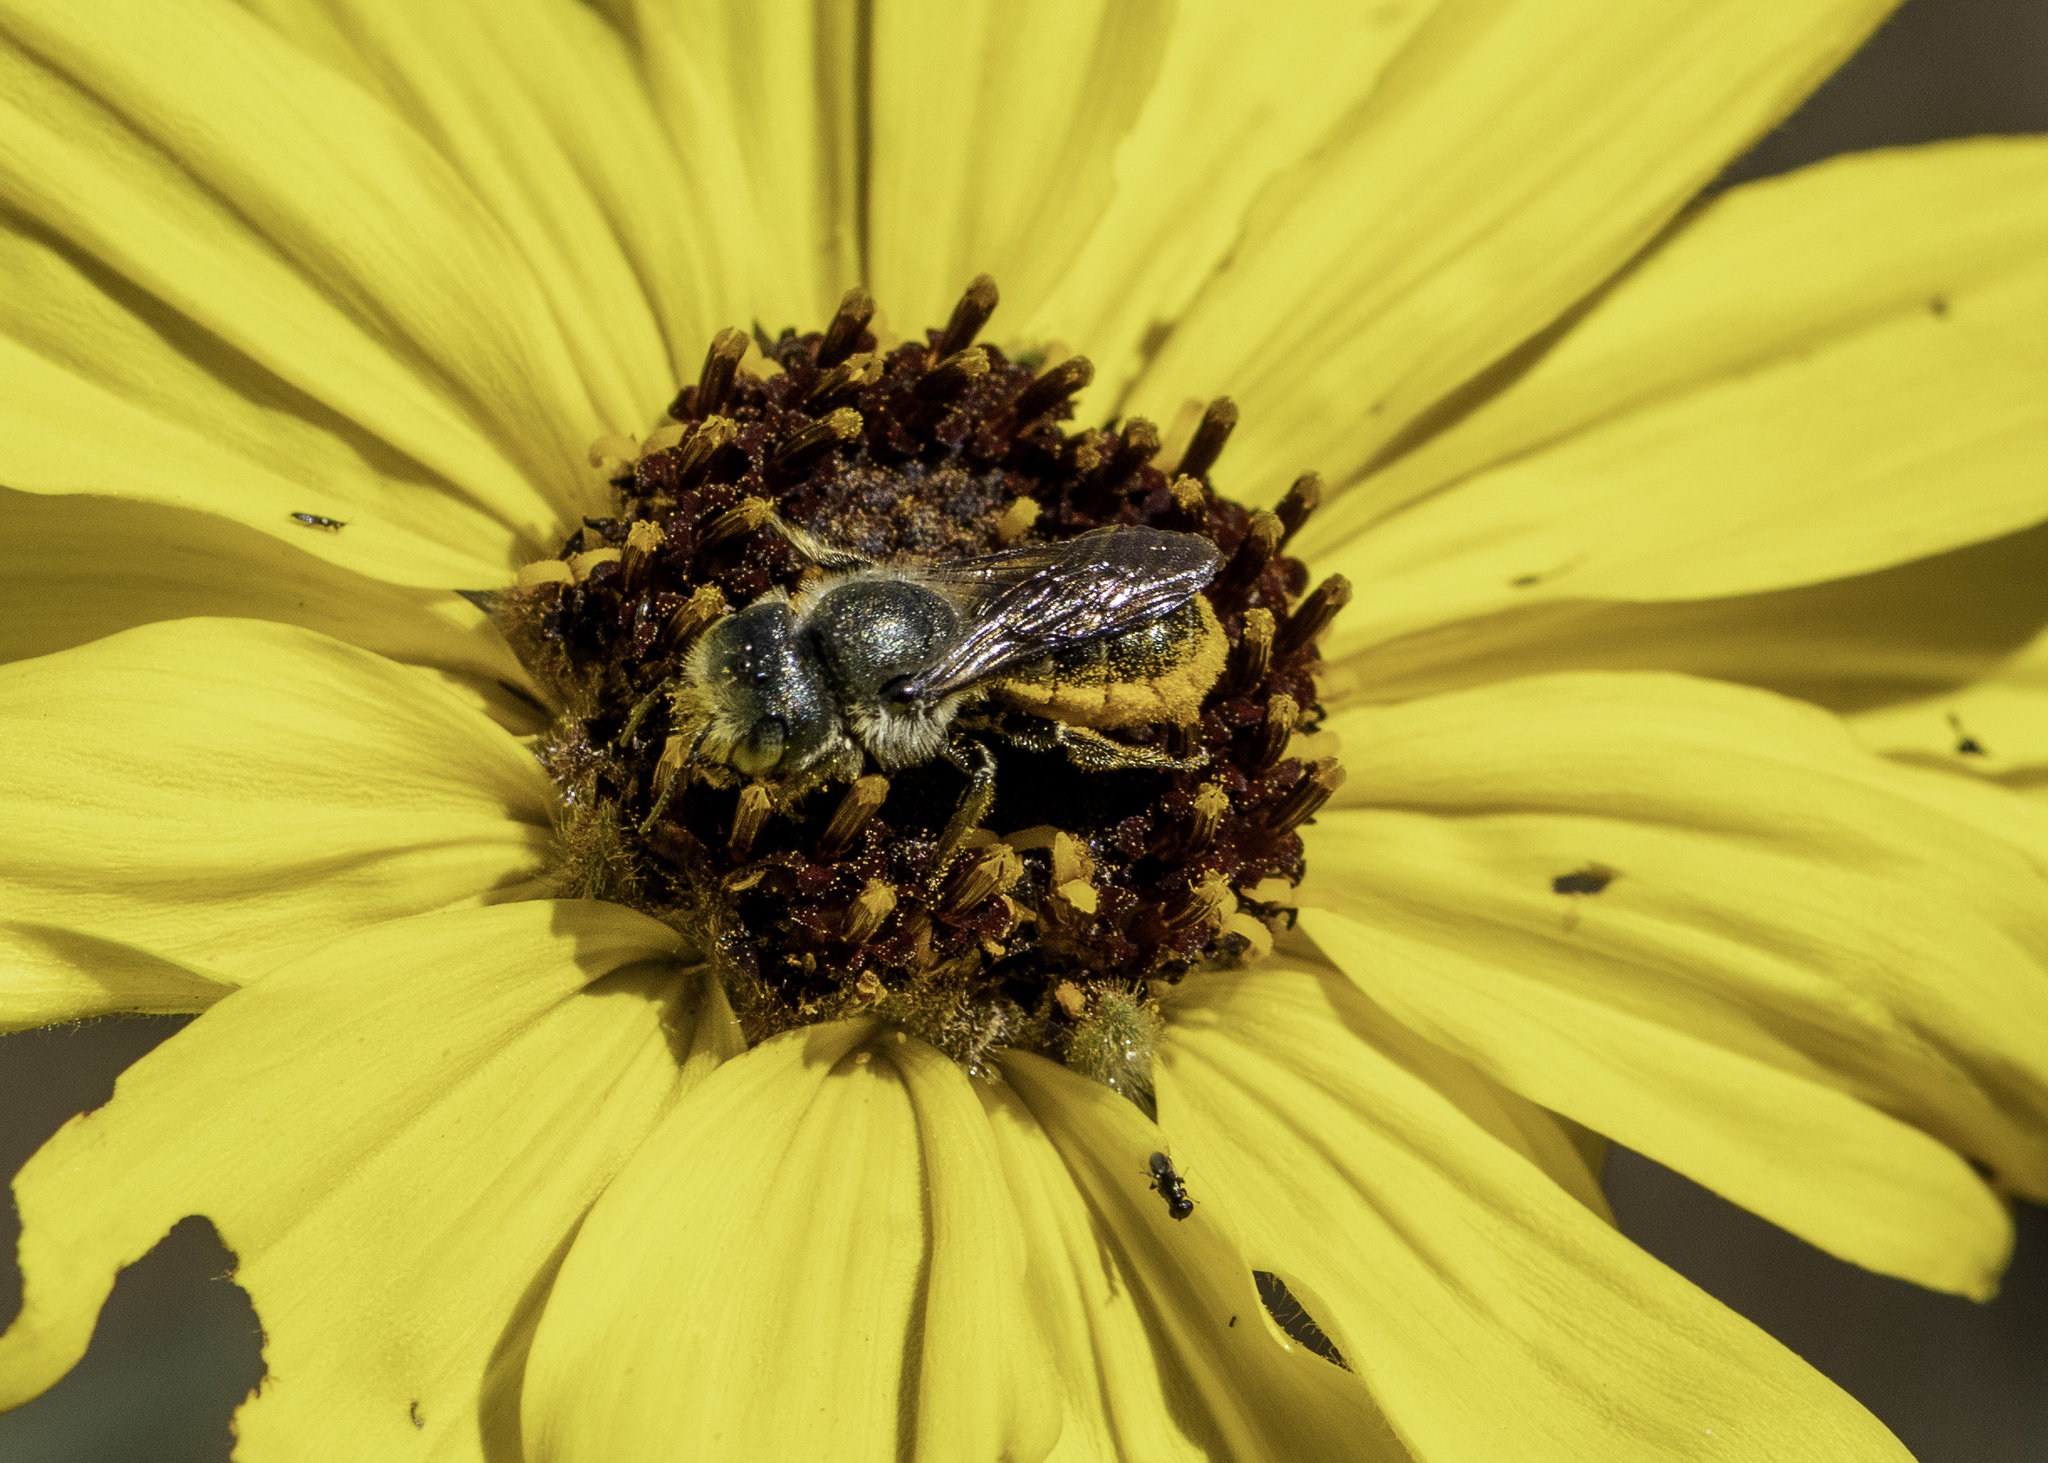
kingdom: Animalia
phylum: Arthropoda
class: Insecta
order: Hymenoptera
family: Megachilidae
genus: Osmia
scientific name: Osmia coloradensis
